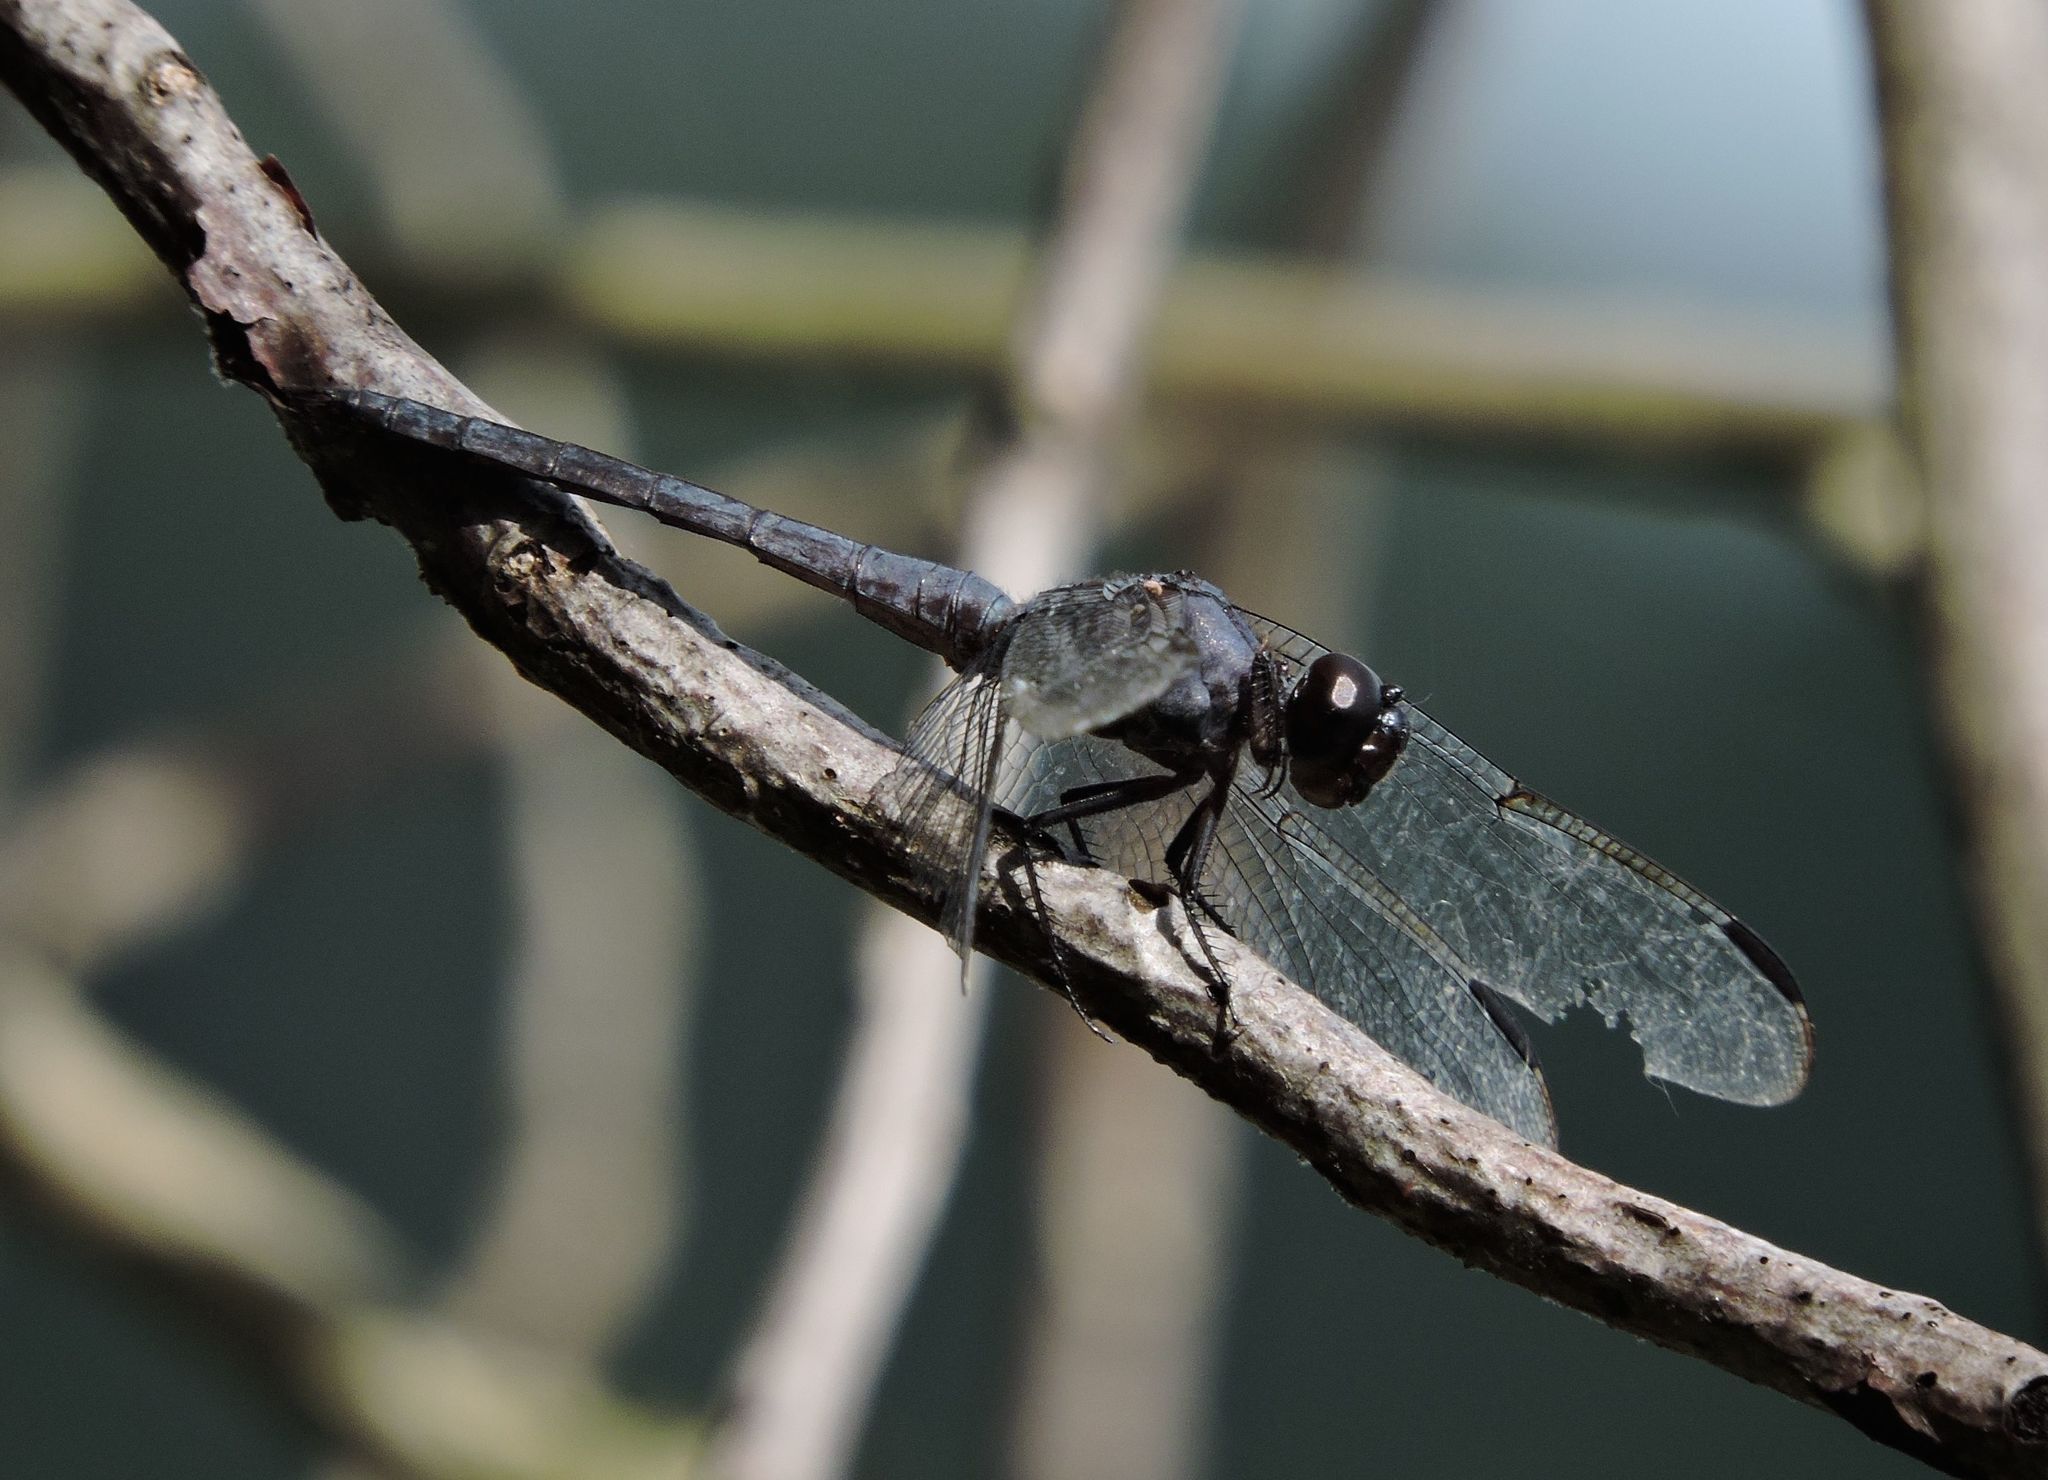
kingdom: Animalia
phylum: Arthropoda
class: Insecta
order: Odonata
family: Libellulidae
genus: Libellula
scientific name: Libellula incesta
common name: Slaty skimmer
